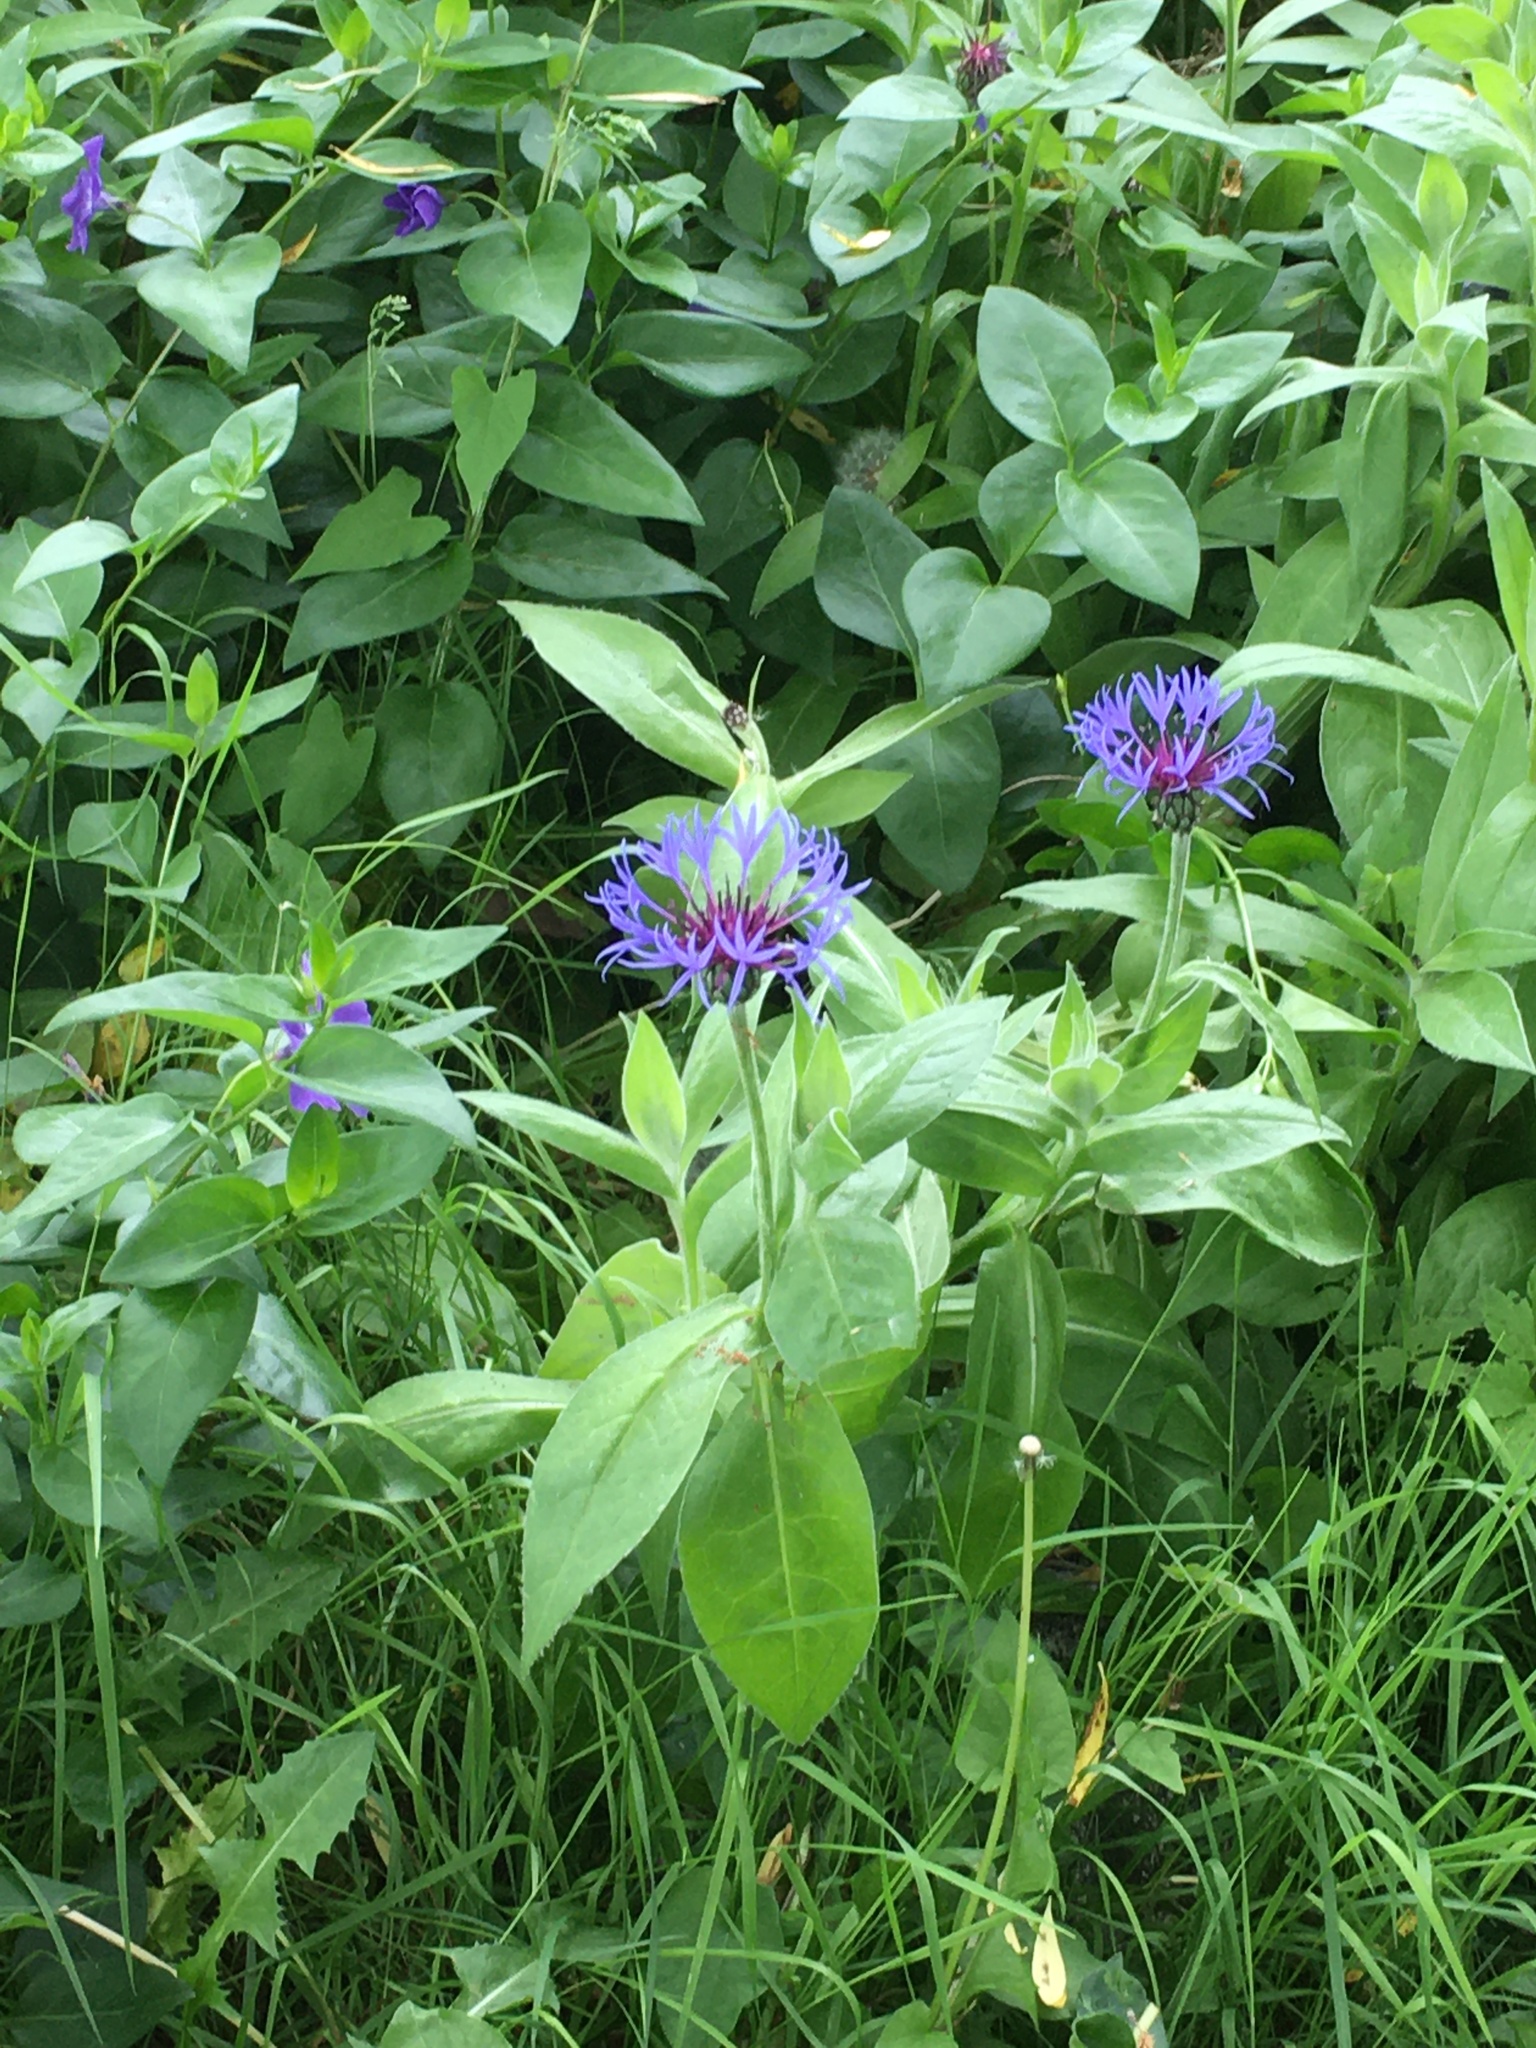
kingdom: Plantae
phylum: Tracheophyta
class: Magnoliopsida
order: Asterales
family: Asteraceae
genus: Centaurea
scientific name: Centaurea montana
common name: Perennial cornflower
